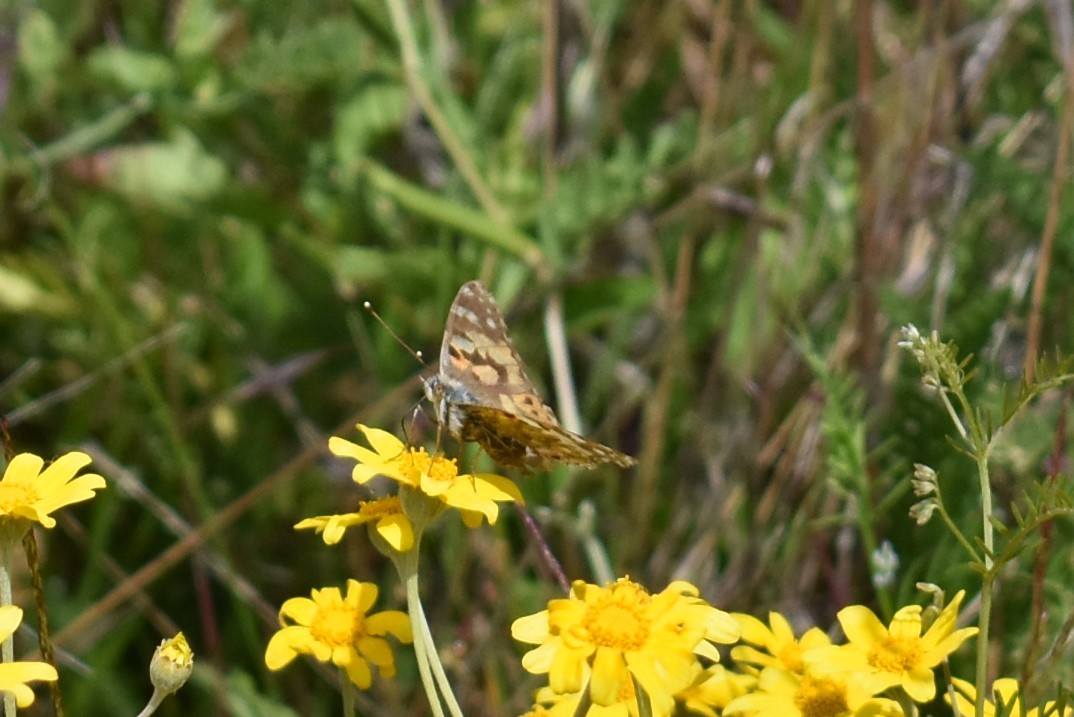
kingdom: Animalia
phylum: Arthropoda
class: Insecta
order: Lepidoptera
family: Nymphalidae
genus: Vanessa
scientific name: Vanessa cardui
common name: Painted lady
